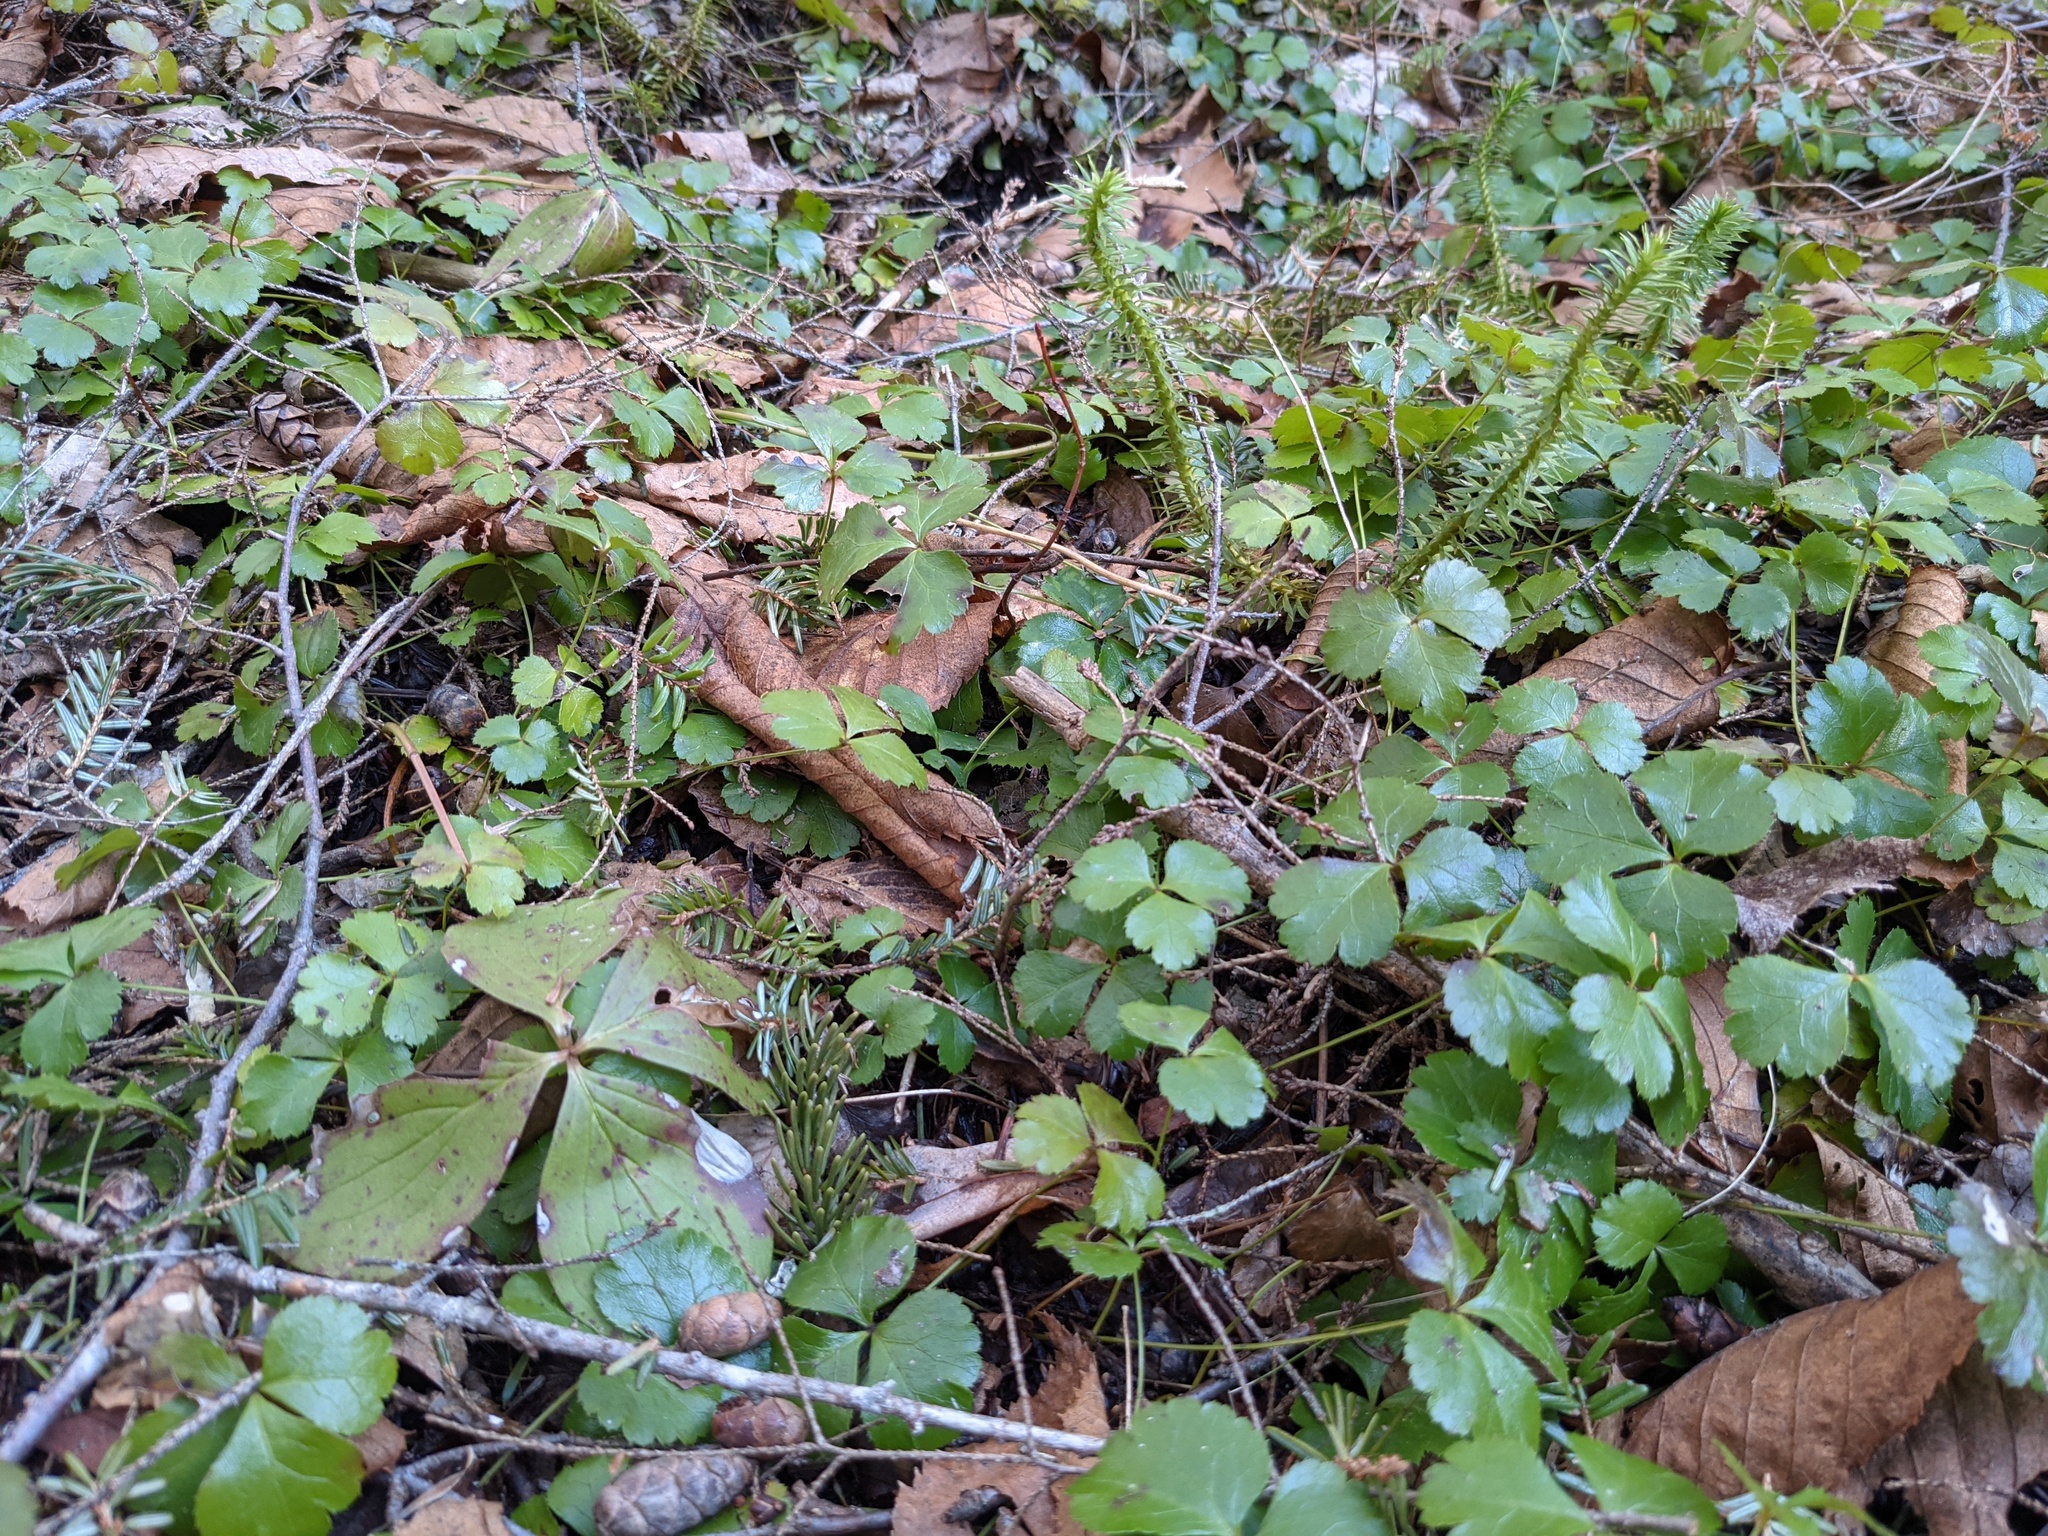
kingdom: Plantae
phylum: Tracheophyta
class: Magnoliopsida
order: Cornales
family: Cornaceae
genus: Cornus
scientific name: Cornus canadensis
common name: Creeping dogwood
